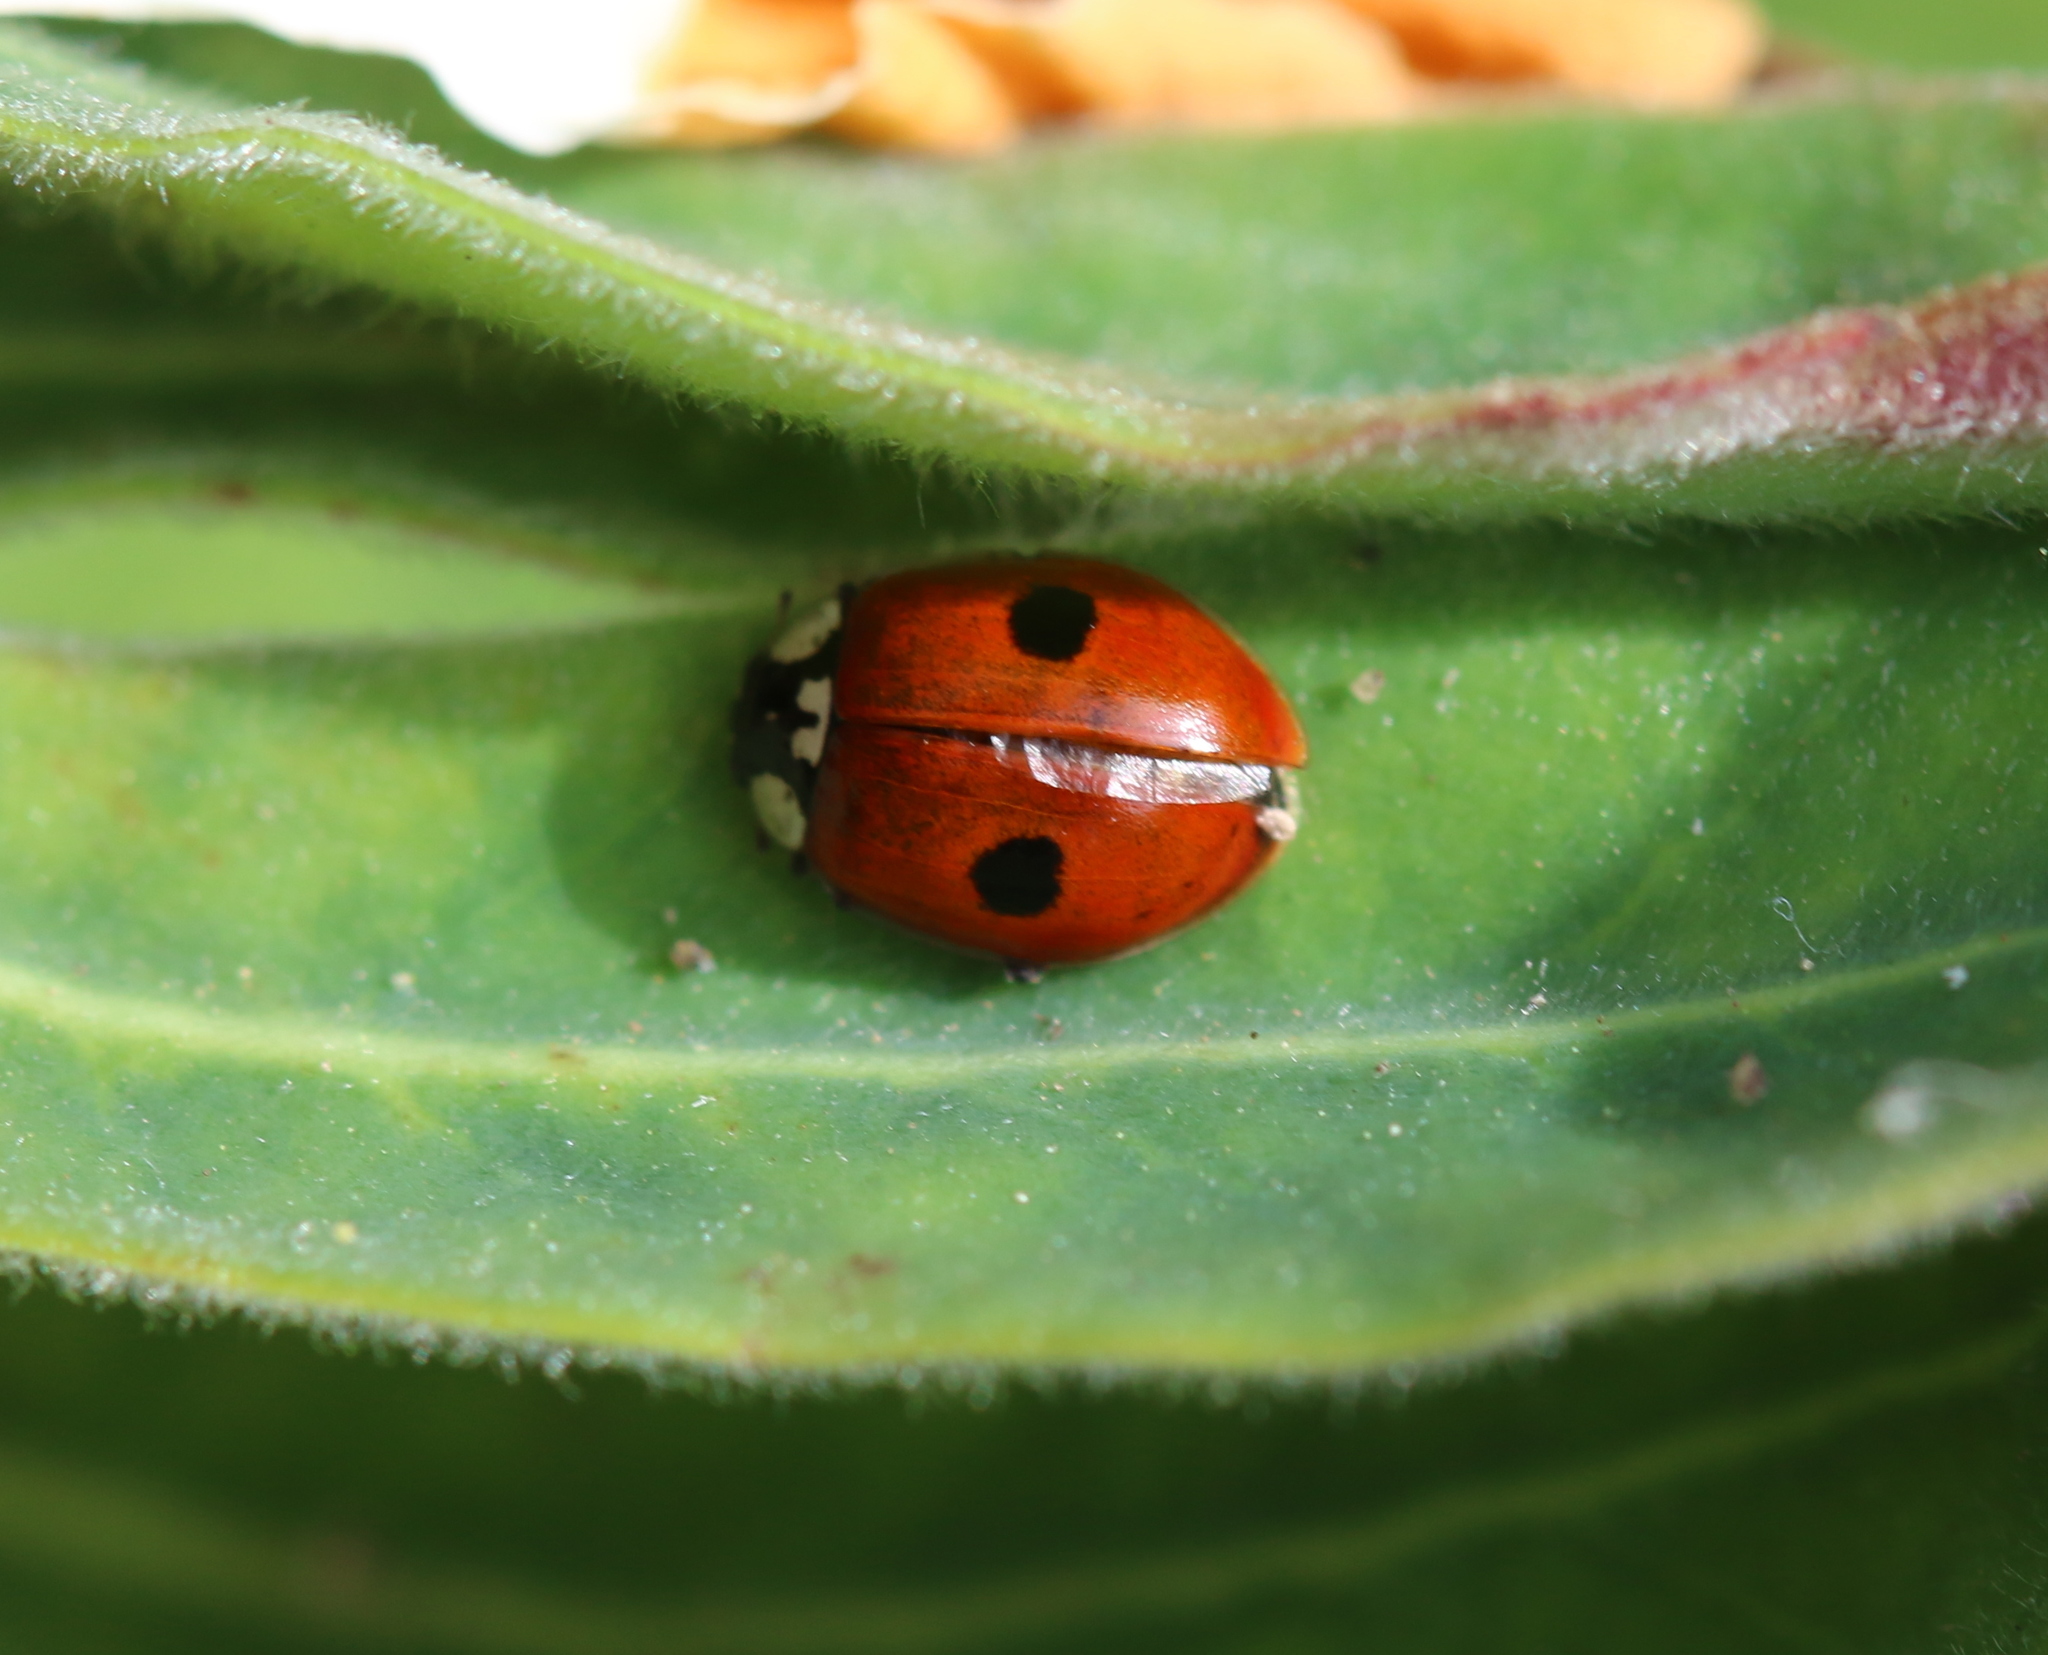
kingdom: Animalia
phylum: Arthropoda
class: Insecta
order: Coleoptera
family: Coccinellidae
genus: Adalia
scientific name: Adalia bipunctata
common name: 2-spot ladybird
